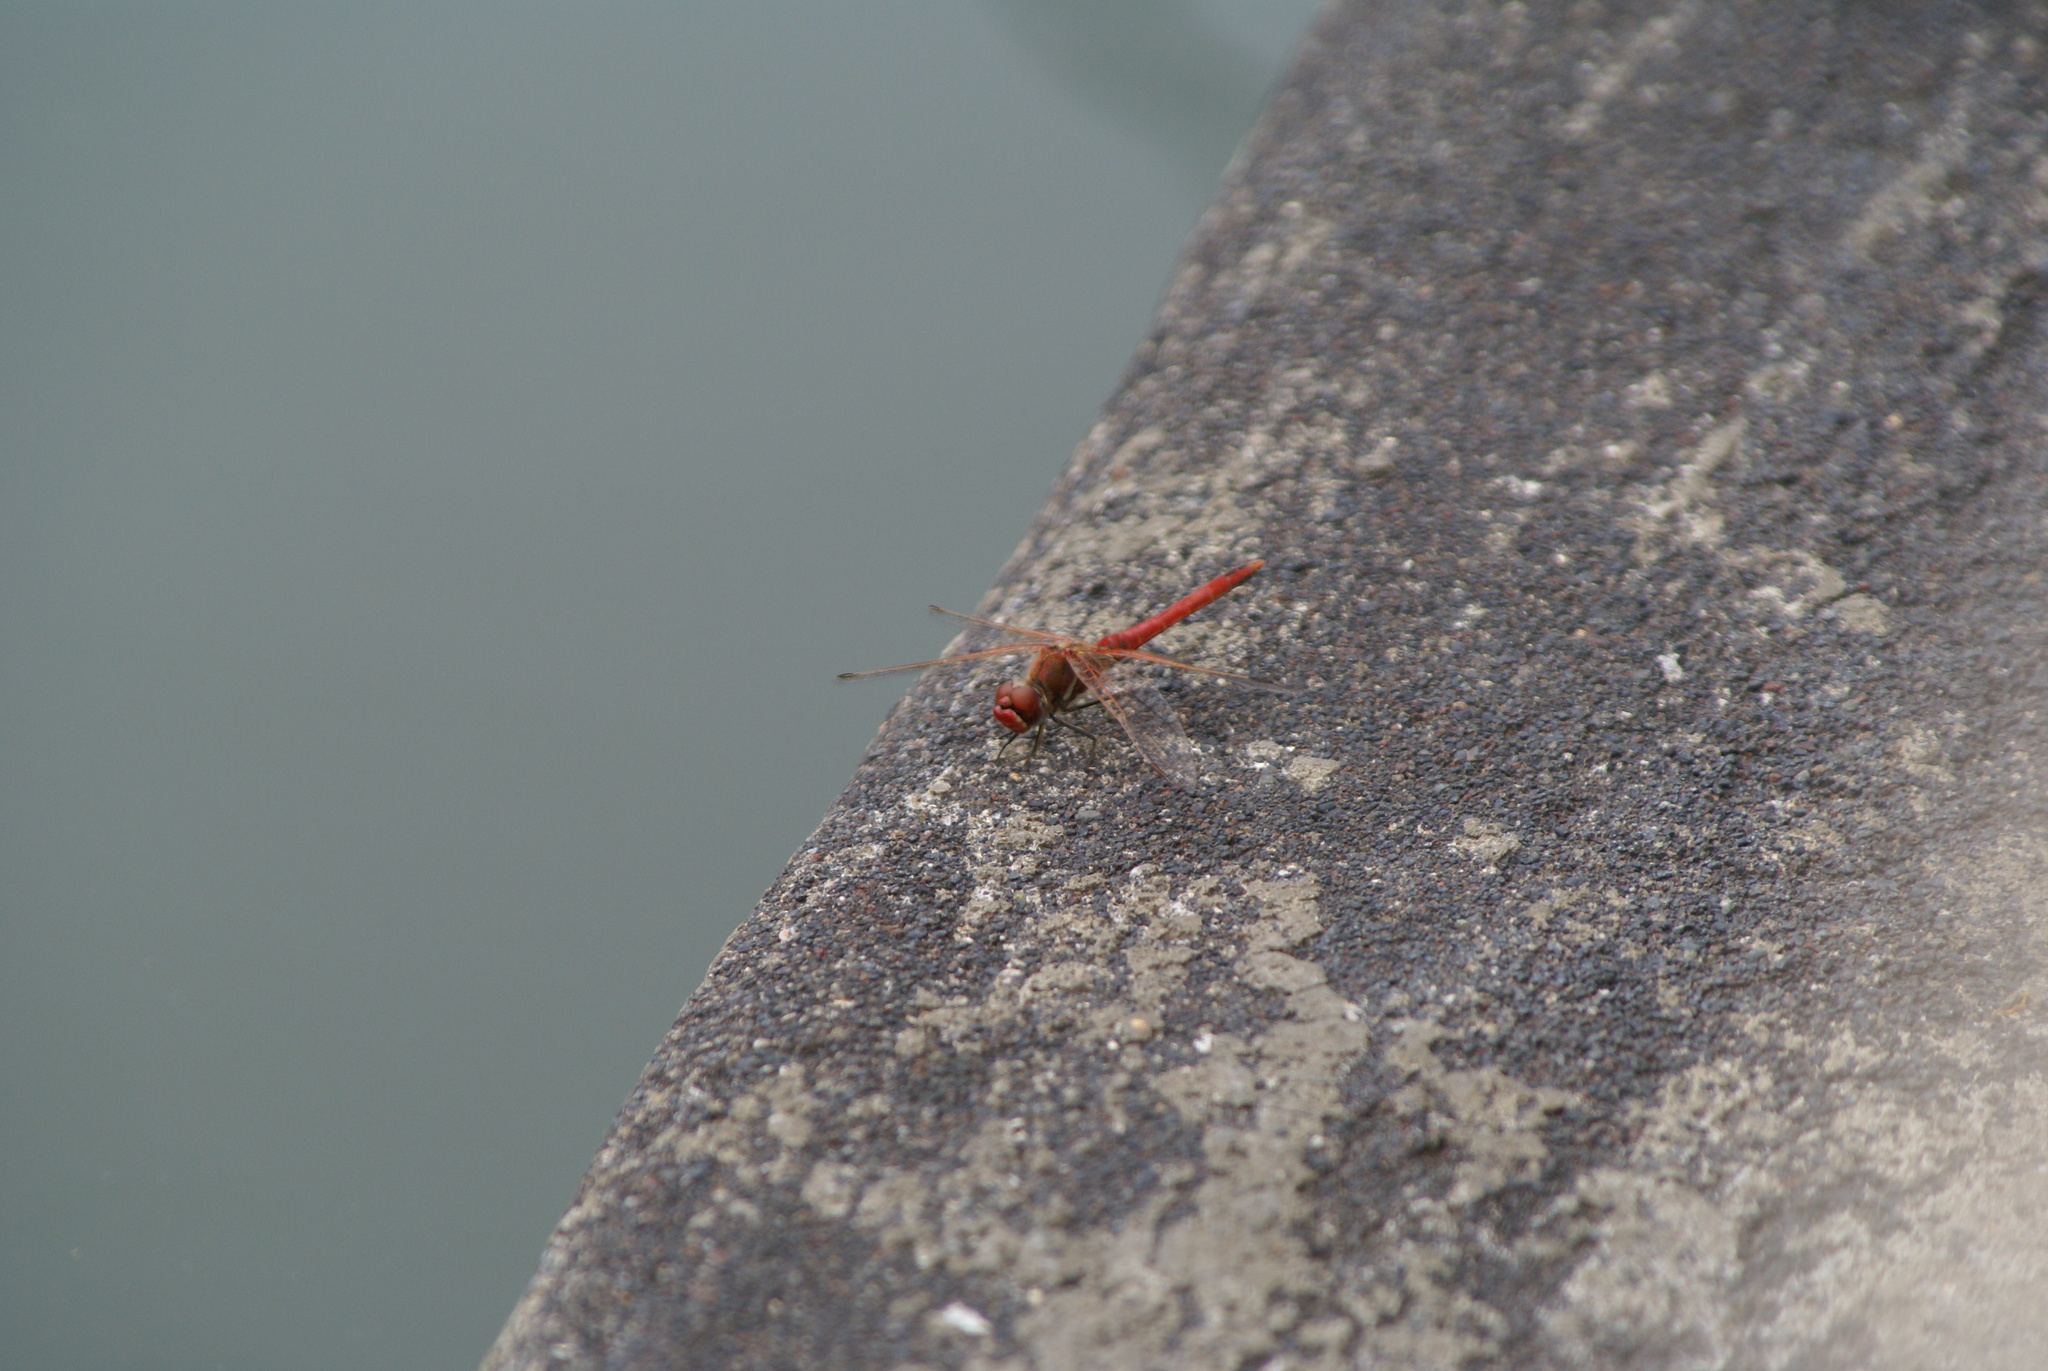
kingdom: Animalia
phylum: Arthropoda
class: Insecta
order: Odonata
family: Libellulidae
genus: Sympetrum
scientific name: Sympetrum fonscolombii
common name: Red-veined darter
